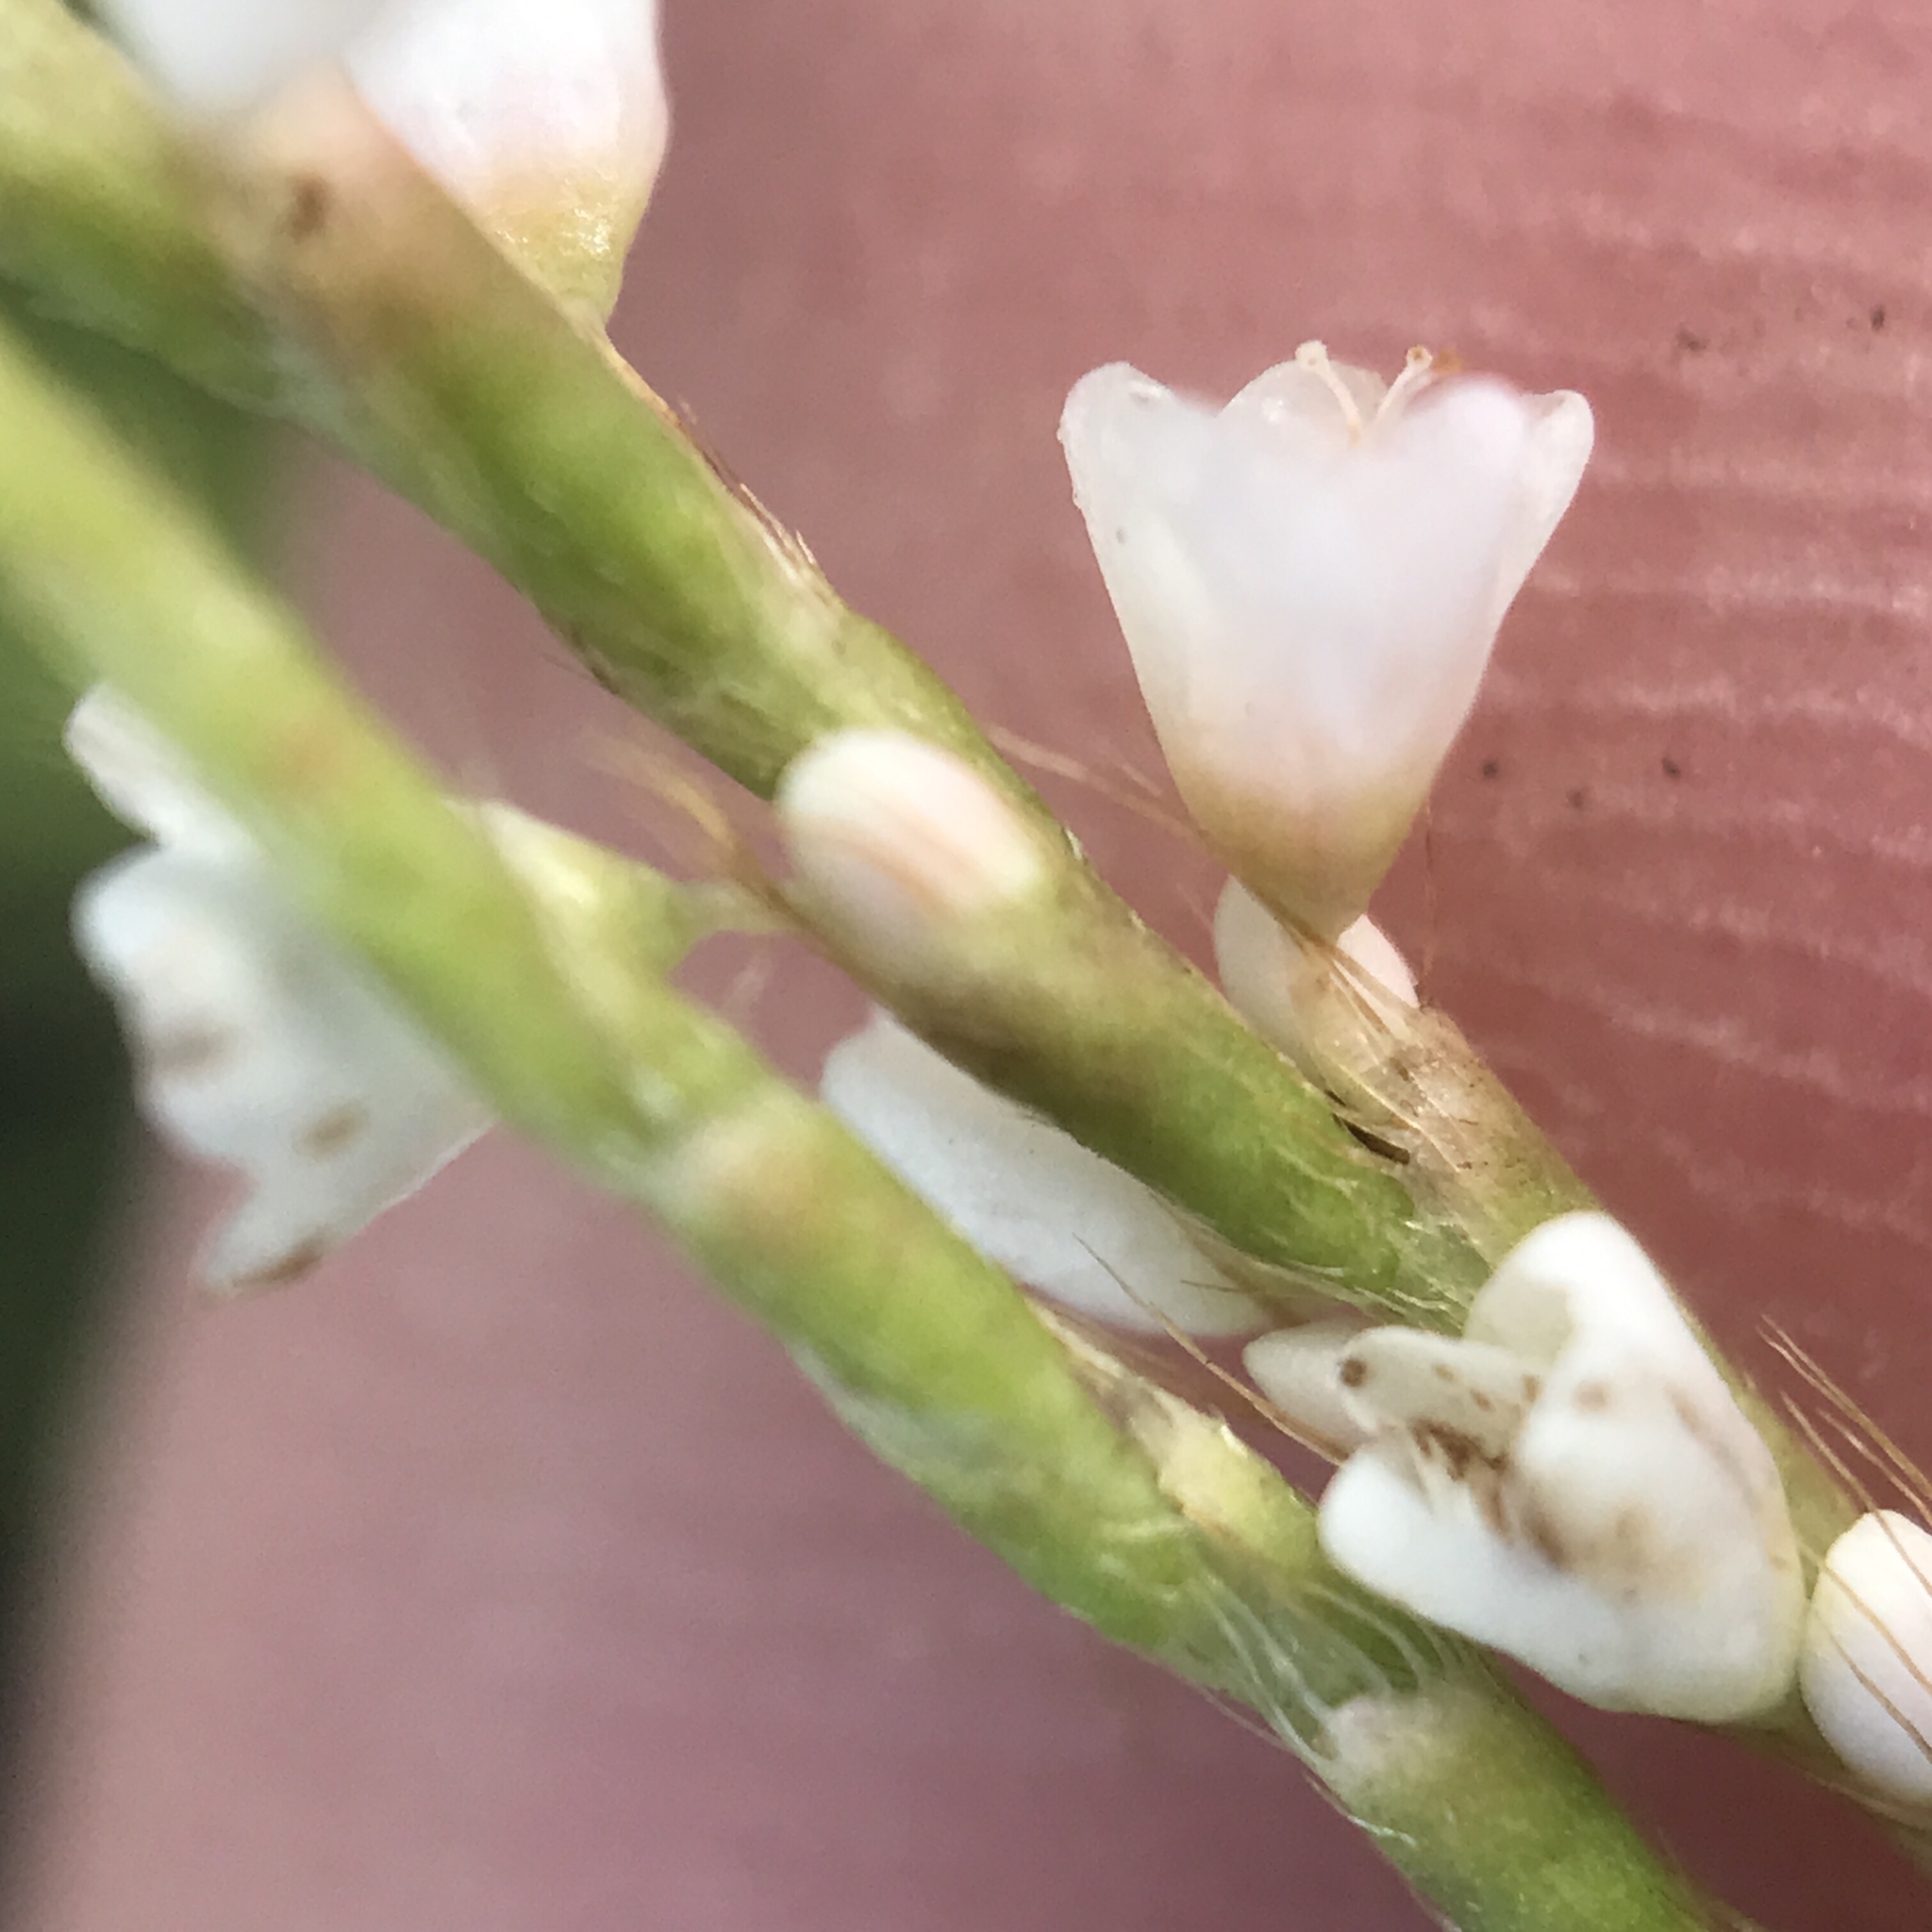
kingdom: Plantae
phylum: Tracheophyta
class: Magnoliopsida
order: Caryophyllales
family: Polygonaceae
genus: Persicaria
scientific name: Persicaria hydropiperoides
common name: Swamp smartweed
